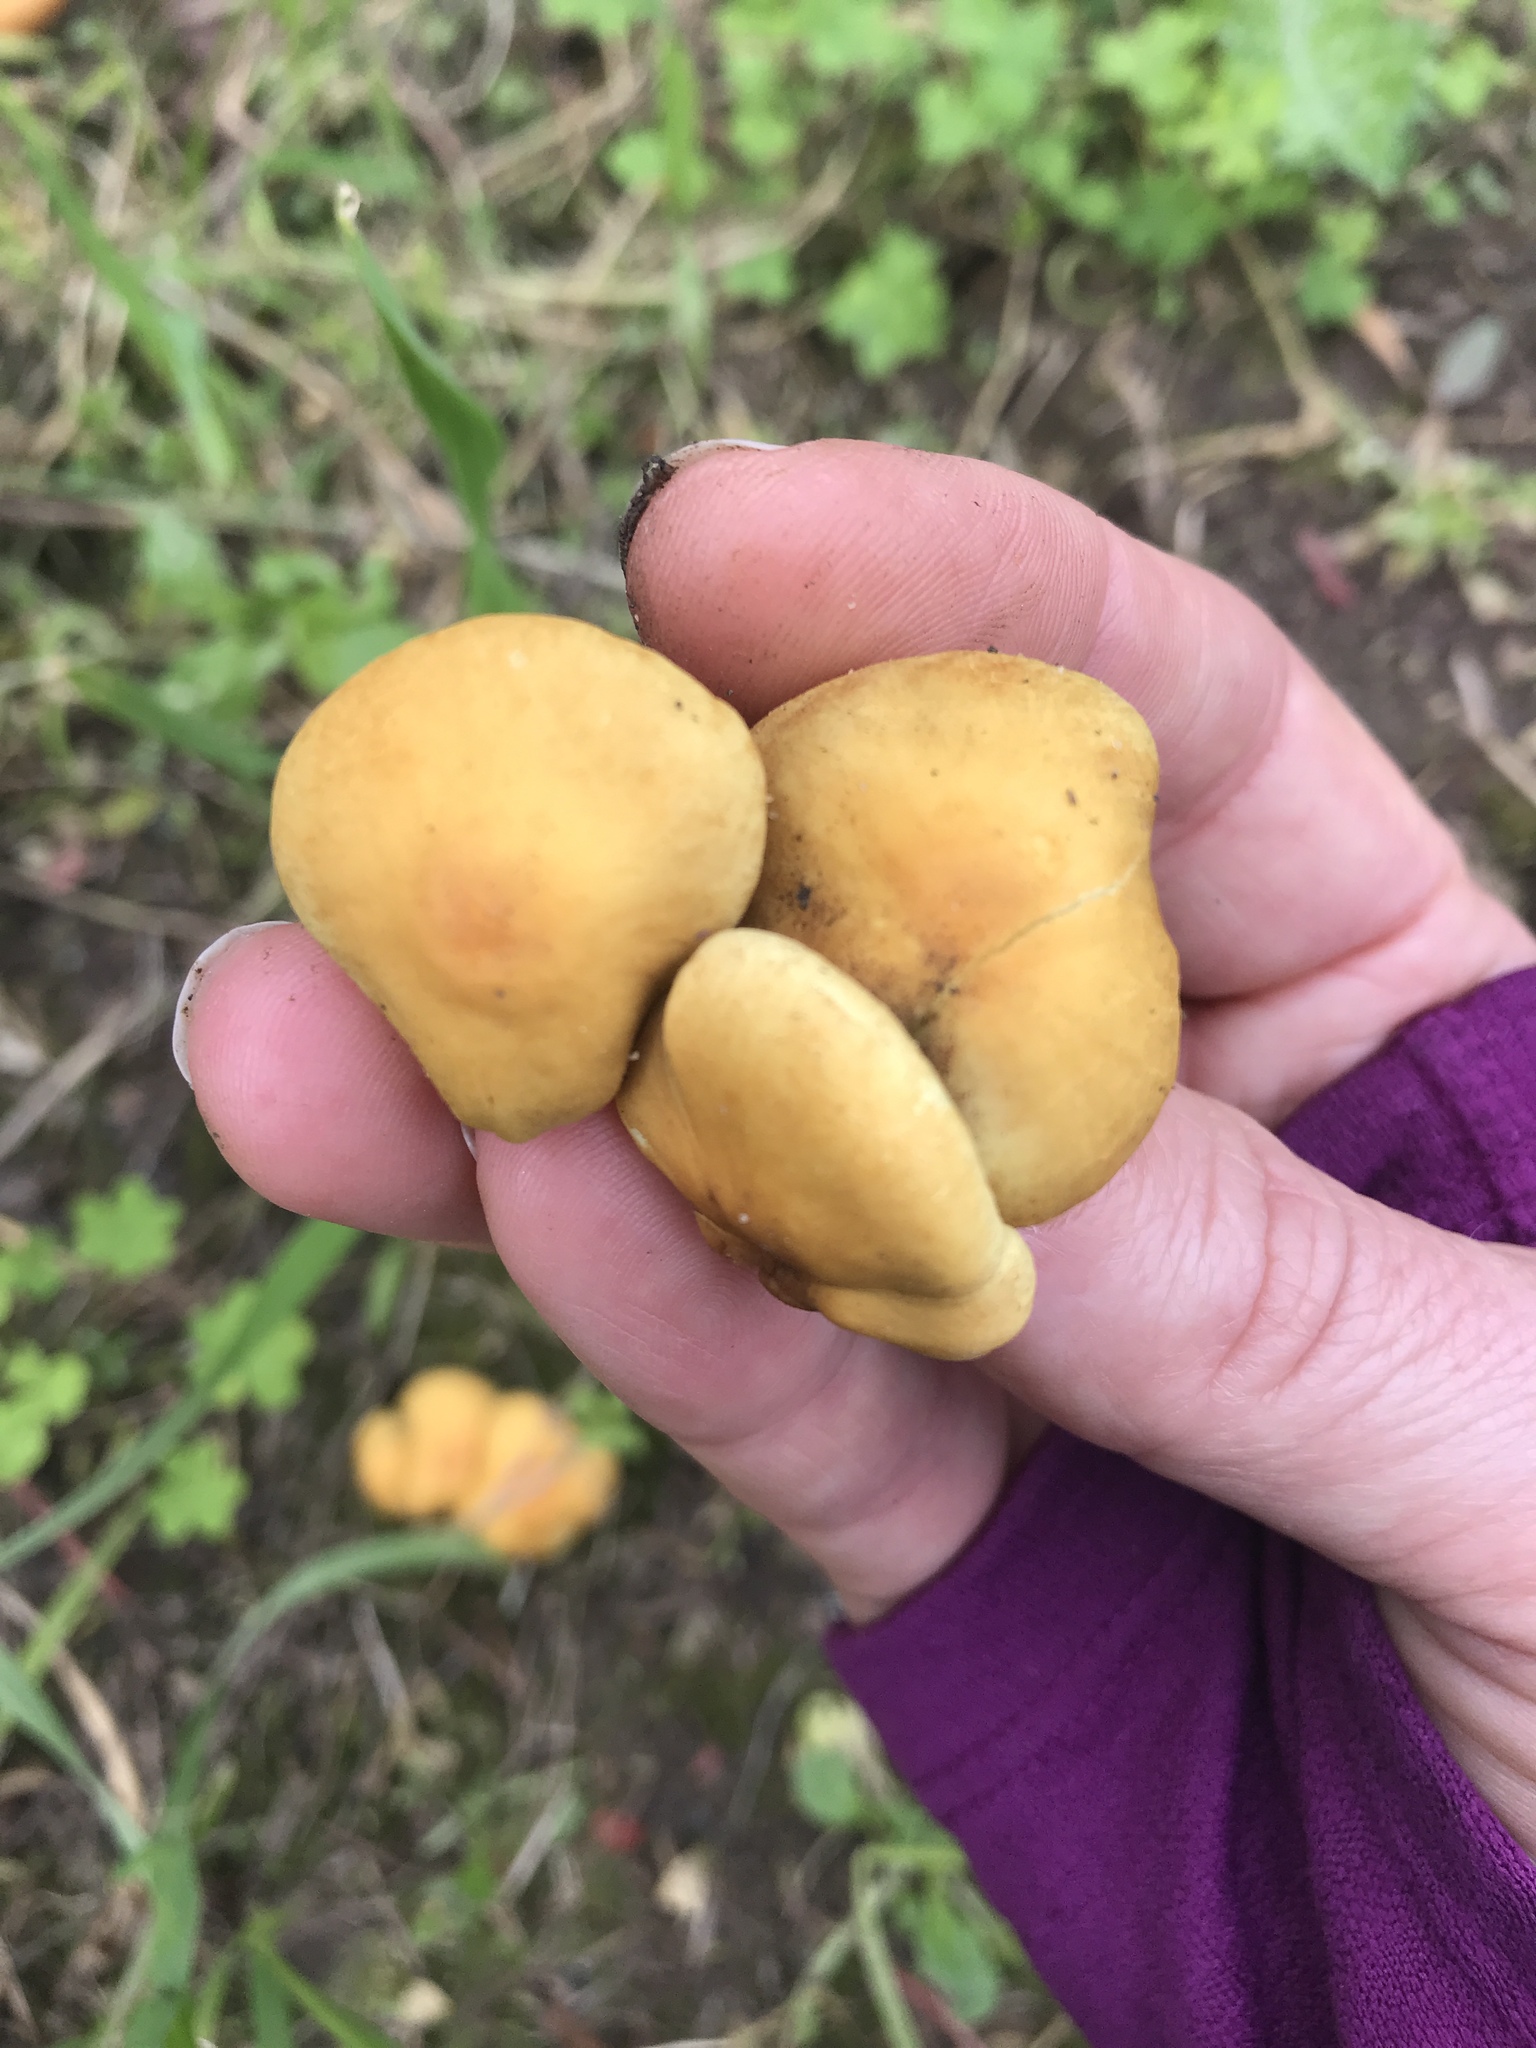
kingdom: Fungi
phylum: Basidiomycota
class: Agaricomycetes
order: Agaricales
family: Strophariaceae
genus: Hypholoma
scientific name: Hypholoma fasciculare
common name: Sulphur tuft
